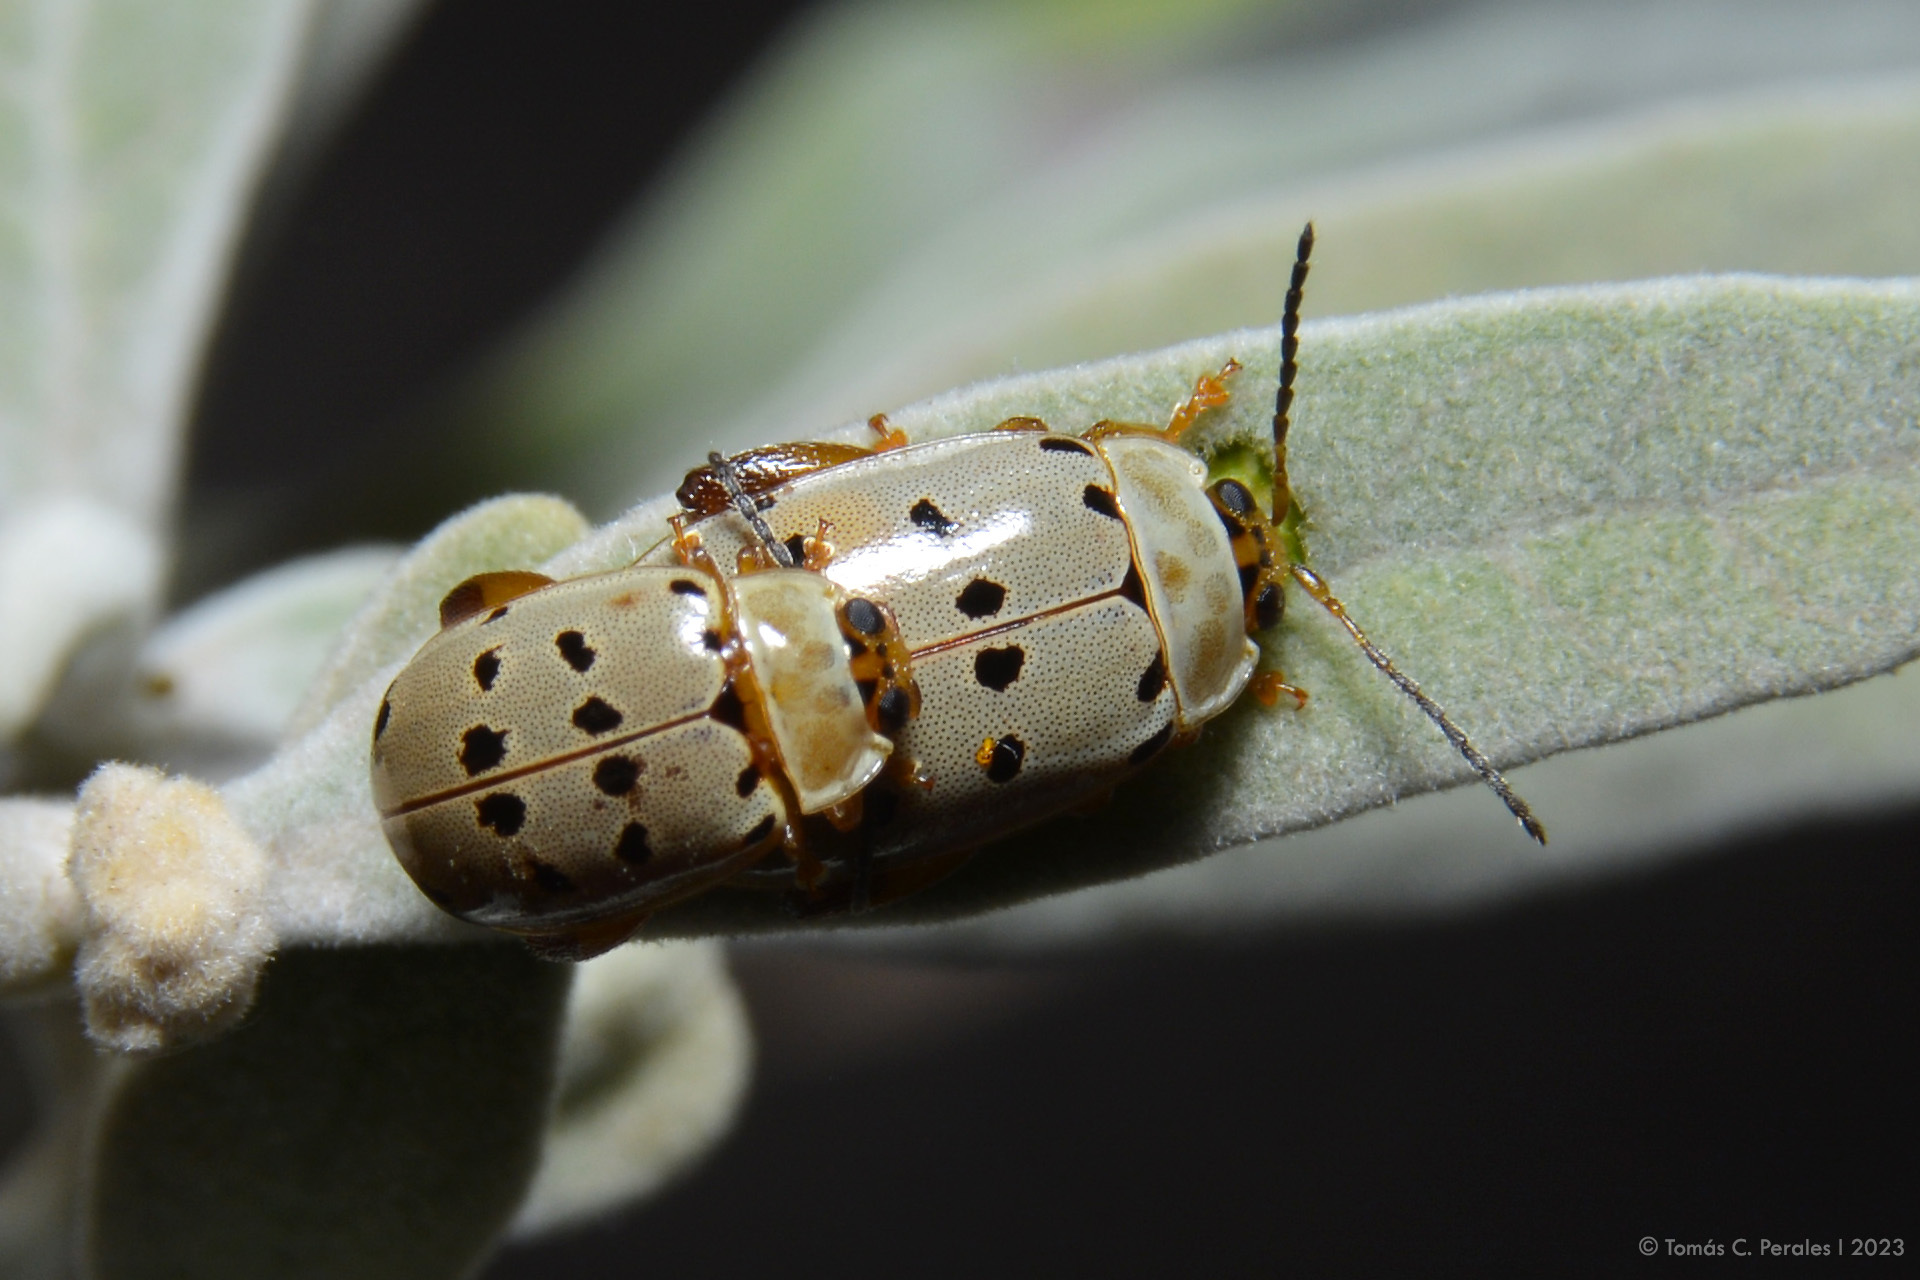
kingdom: Animalia
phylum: Arthropoda
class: Insecta
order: Coleoptera
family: Chrysomelidae
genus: Alagoasa
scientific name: Alagoasa
